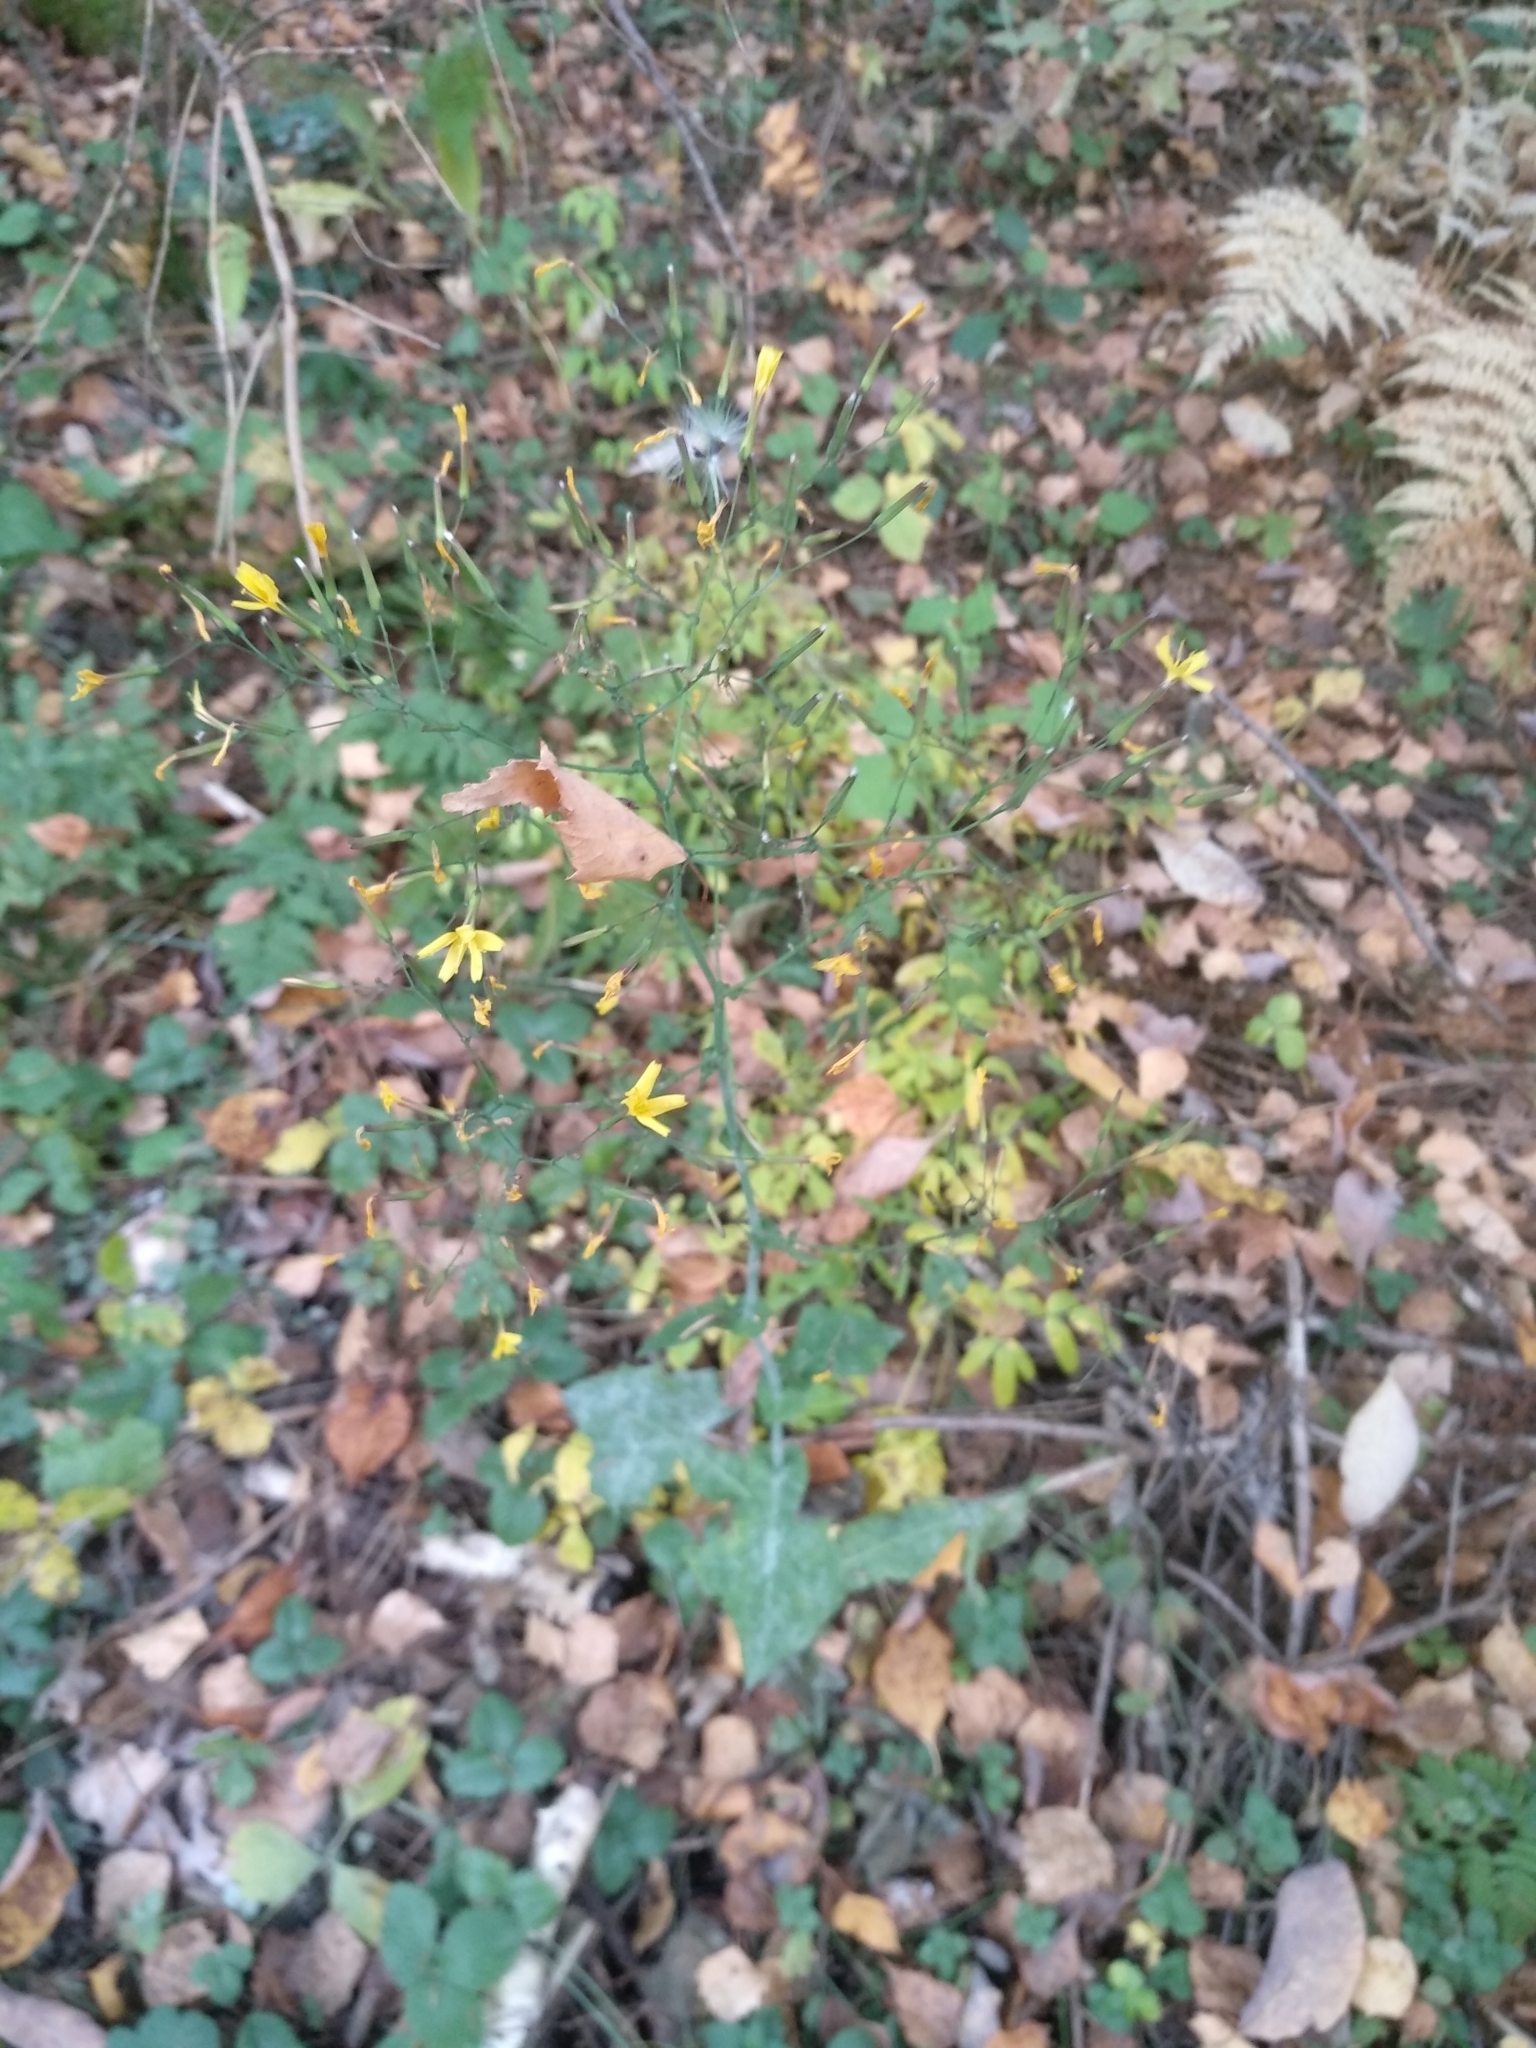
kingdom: Plantae
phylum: Tracheophyta
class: Magnoliopsida
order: Asterales
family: Asteraceae
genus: Mycelis
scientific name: Mycelis muralis
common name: Wall lettuce
